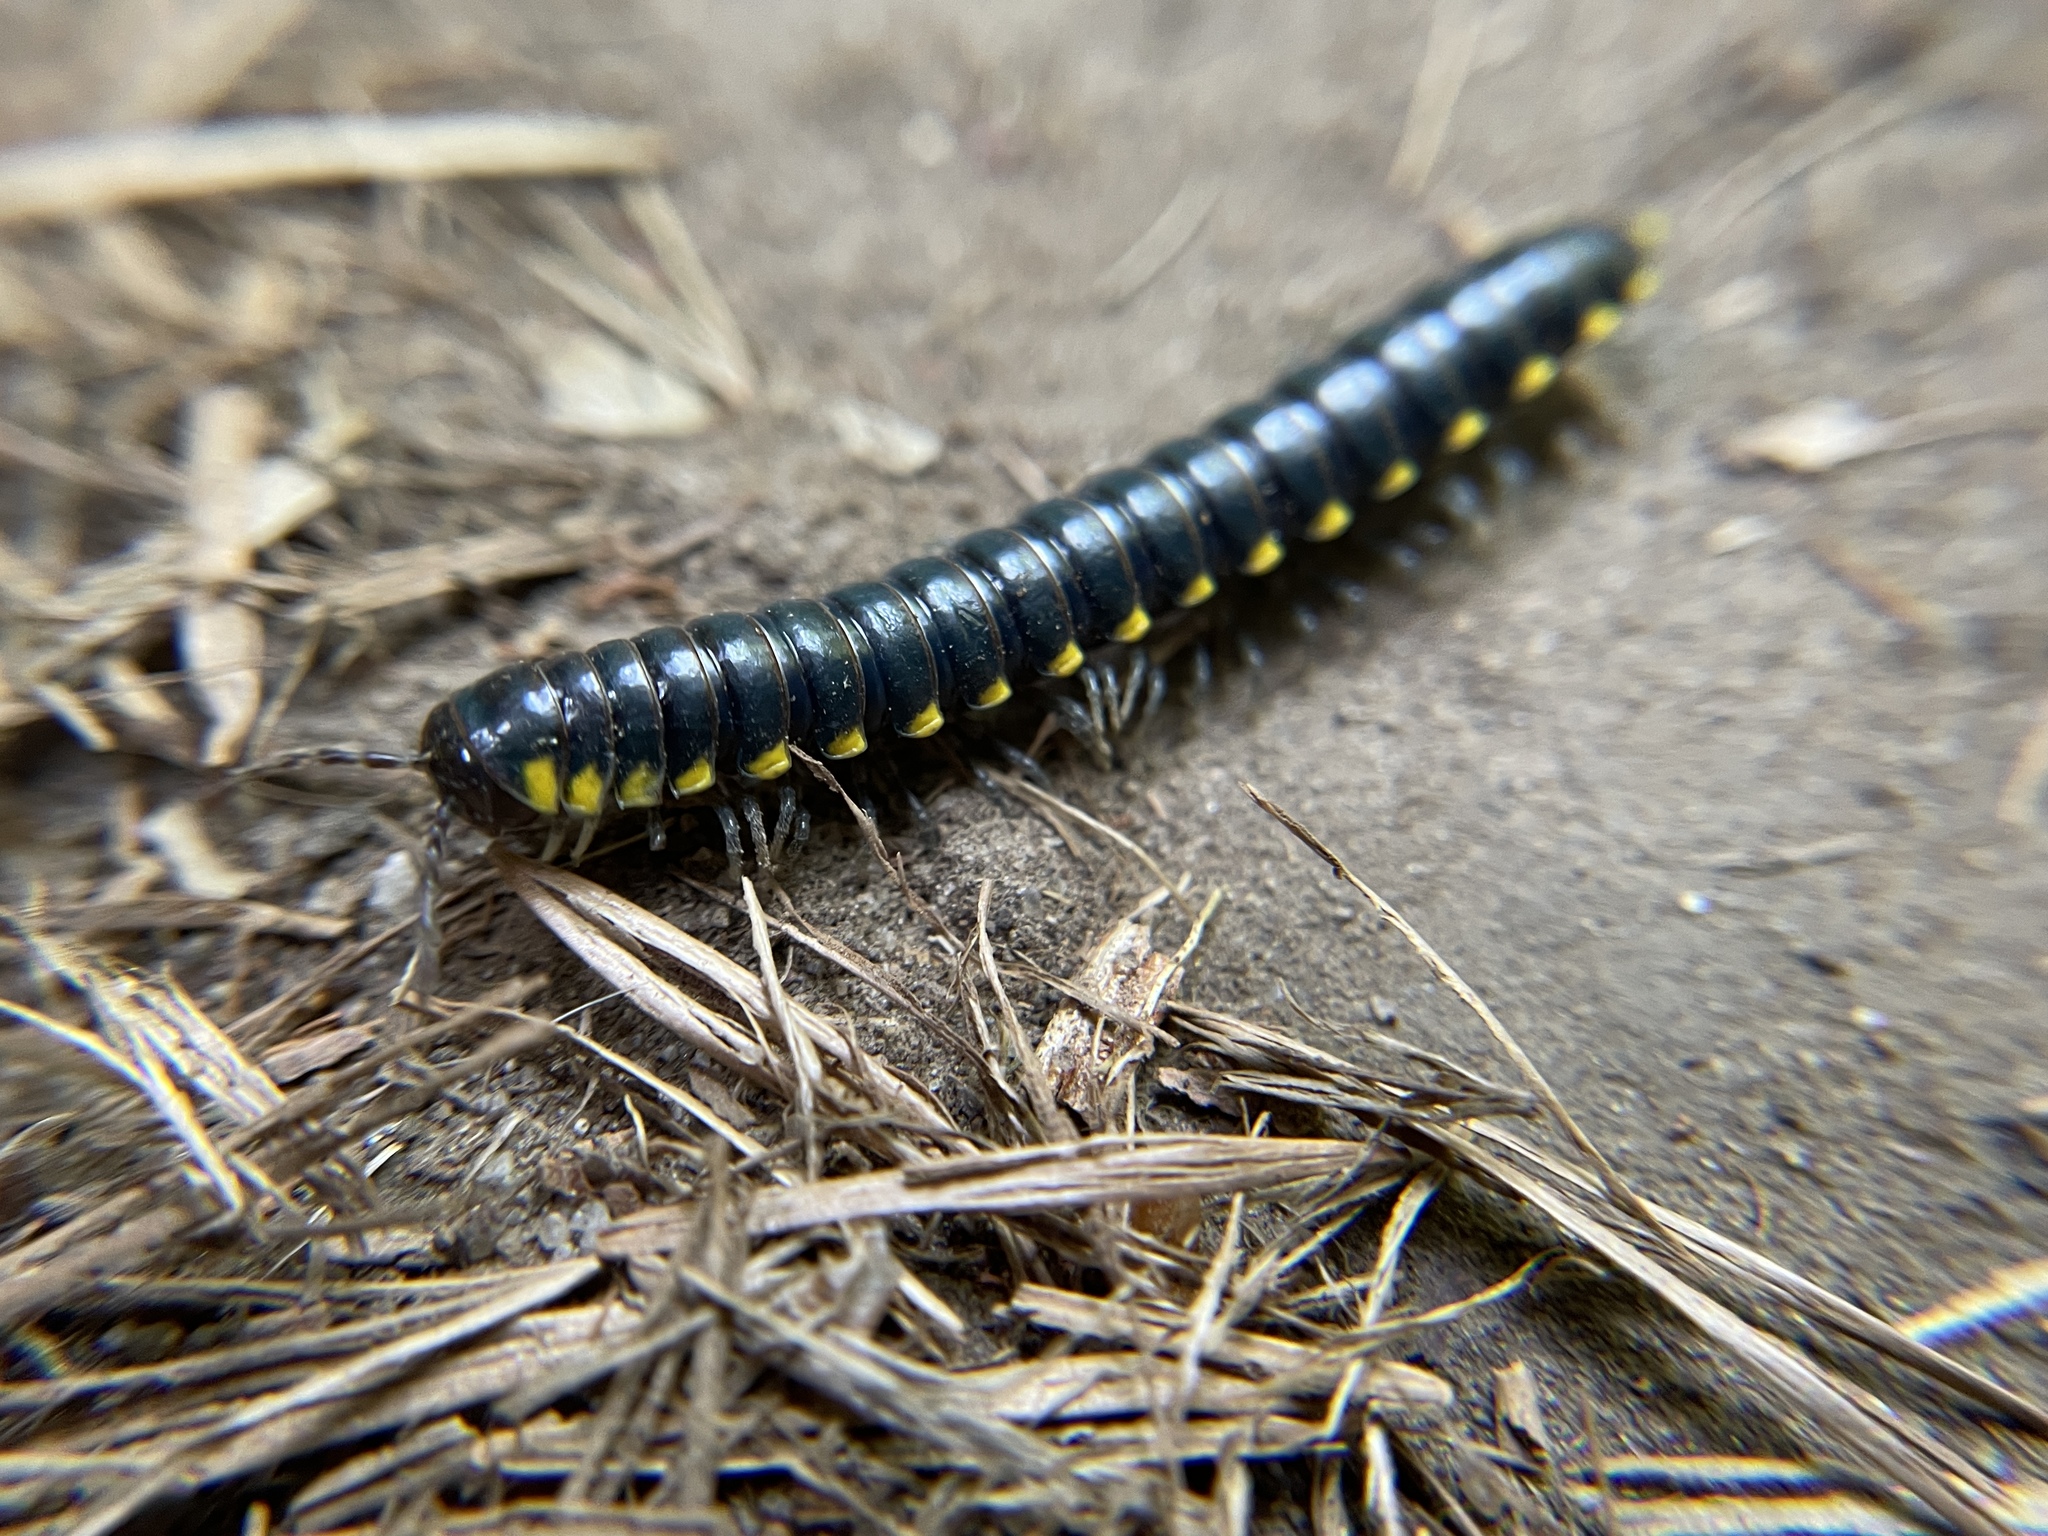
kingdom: Animalia
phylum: Arthropoda
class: Diplopoda
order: Polydesmida
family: Xystodesmidae
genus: Harpaphe
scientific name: Harpaphe haydeniana
